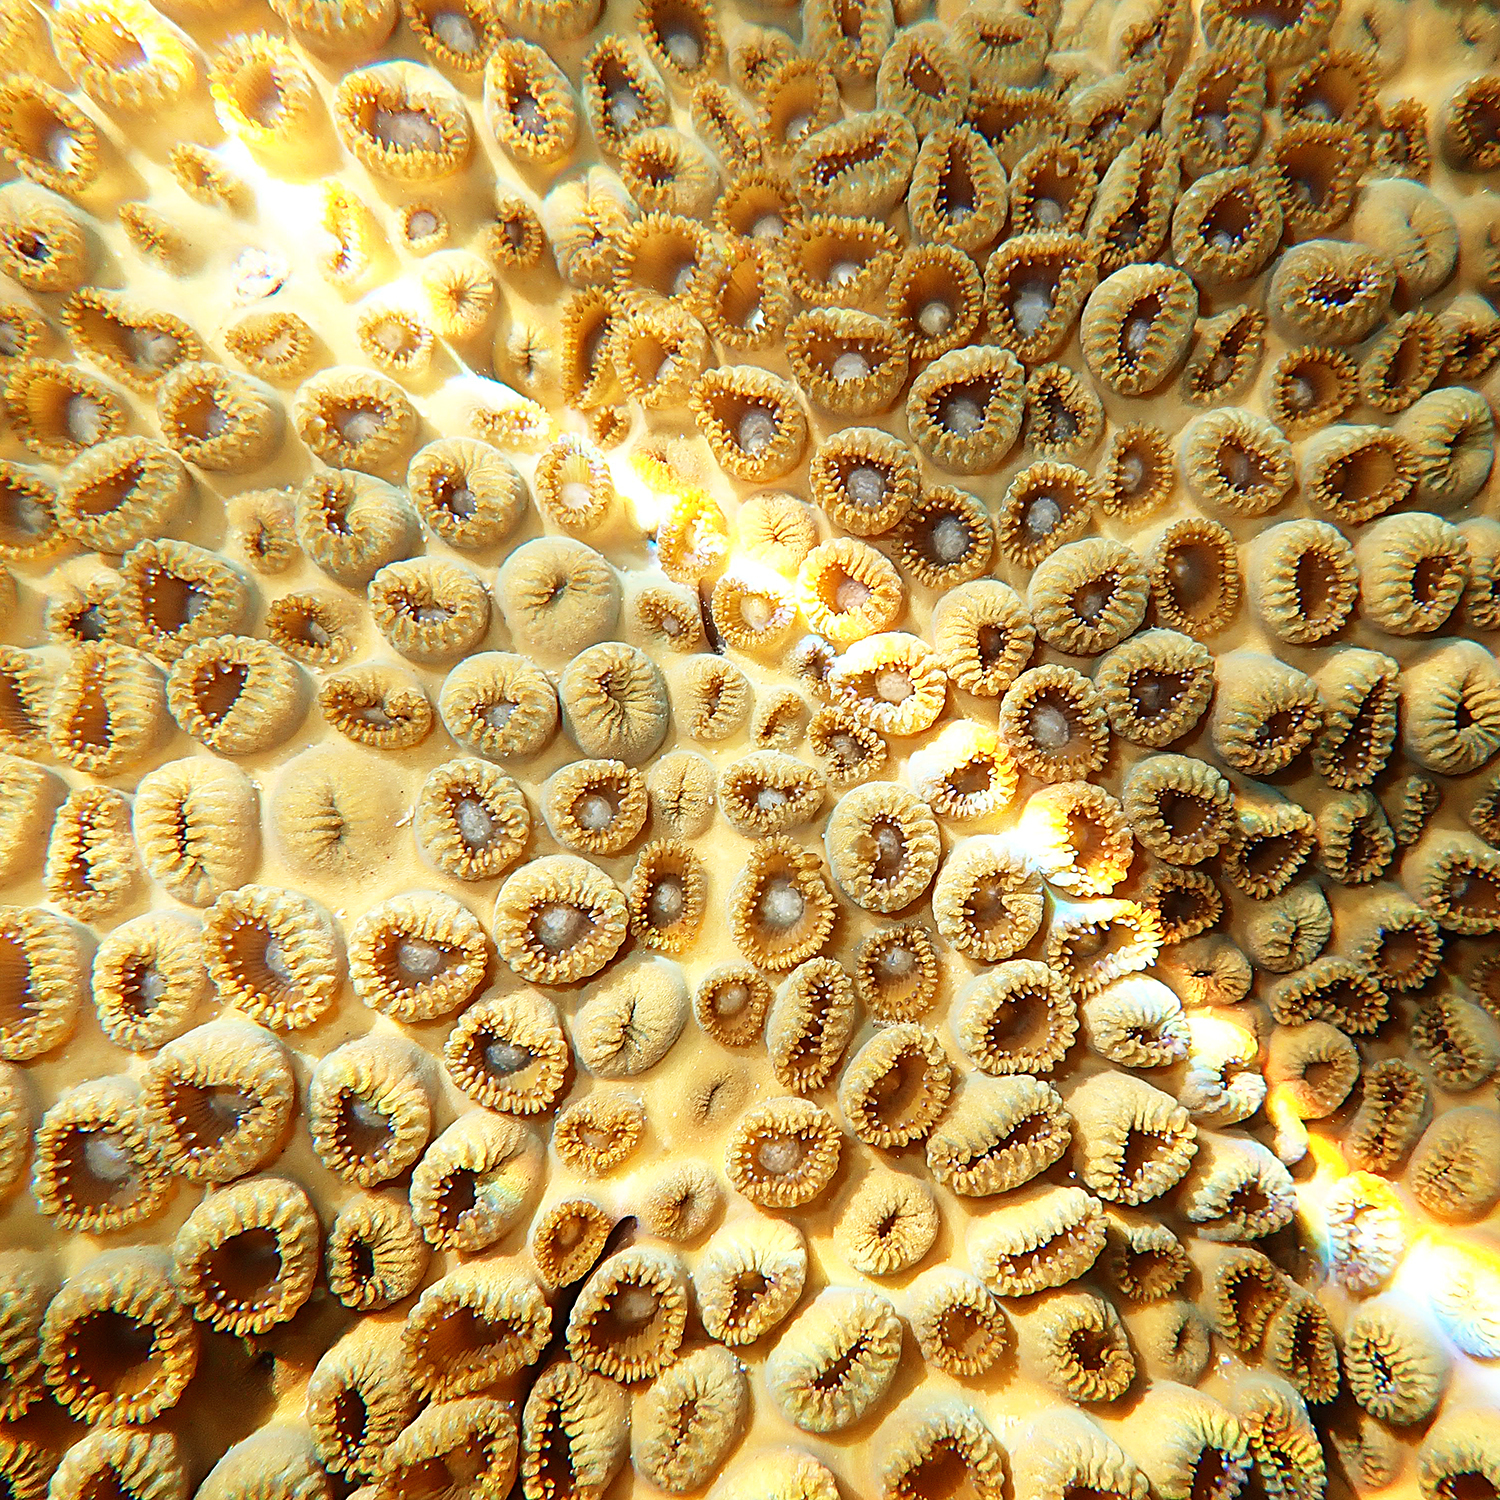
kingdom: Animalia
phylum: Cnidaria
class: Anthozoa
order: Zoantharia
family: Sphenopidae
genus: Palythoa
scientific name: Palythoa tuberculosa
